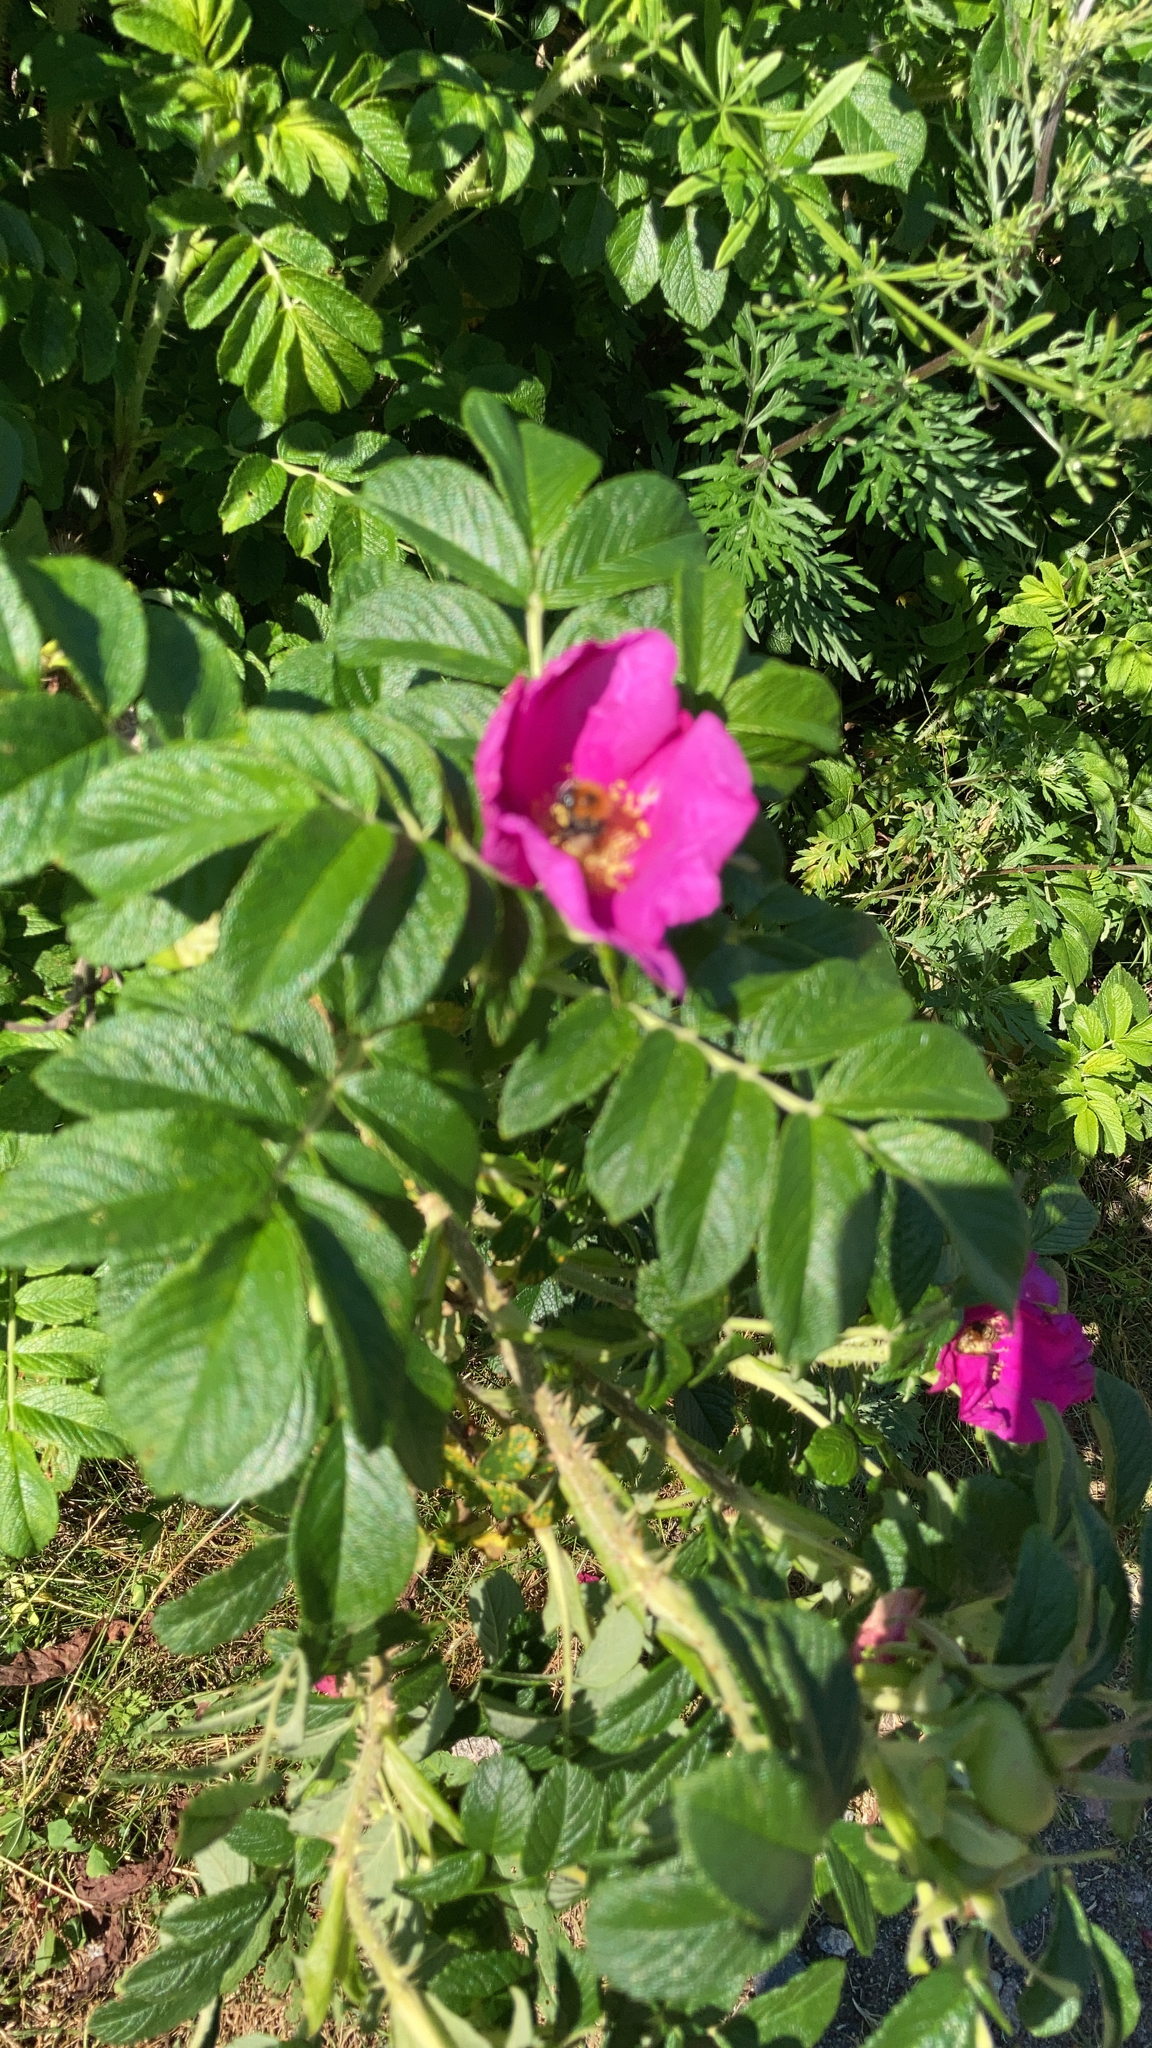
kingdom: Plantae
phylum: Tracheophyta
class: Magnoliopsida
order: Rosales
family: Rosaceae
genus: Rosa
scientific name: Rosa rugosa
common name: Japanese rose
